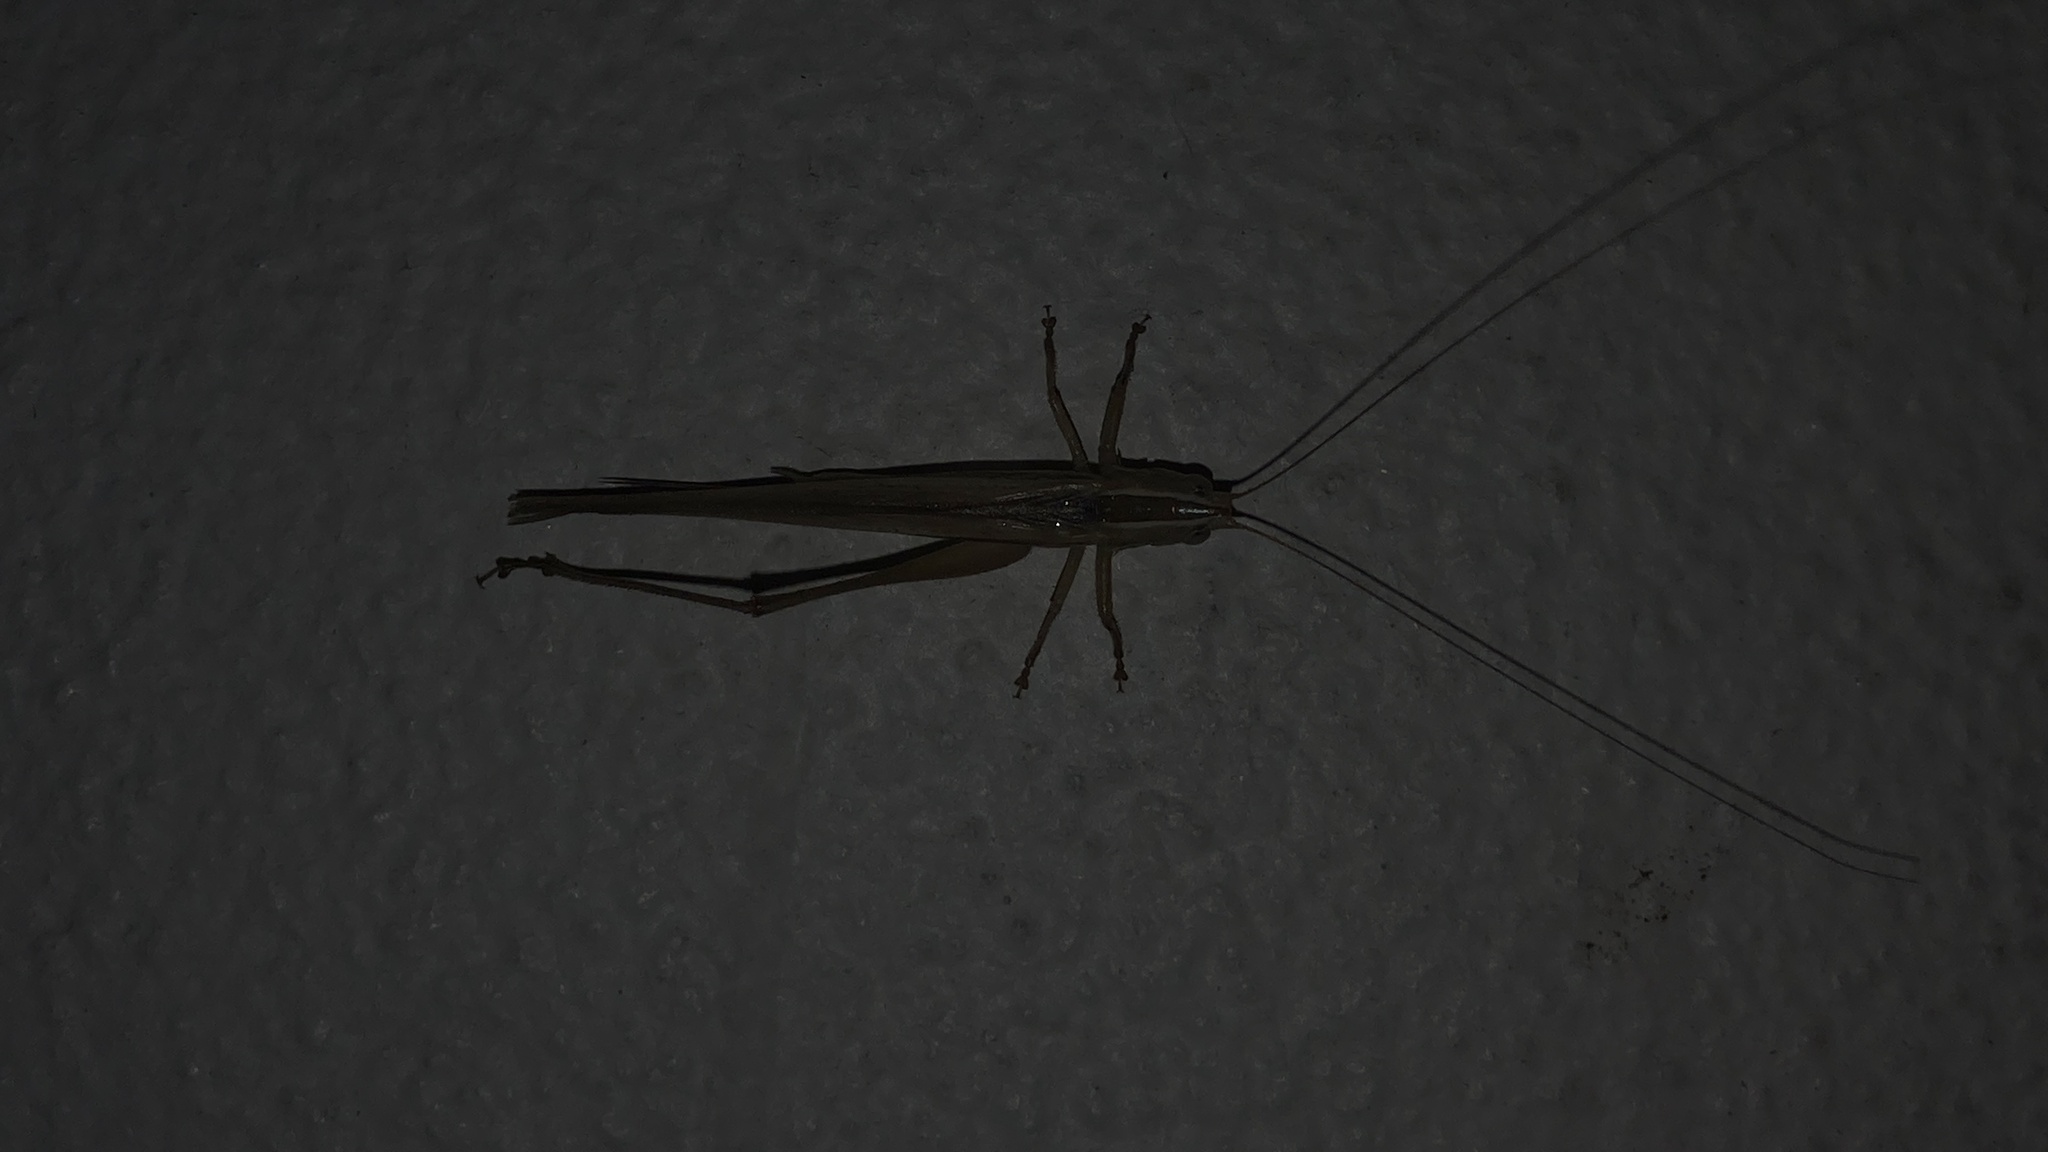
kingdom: Animalia
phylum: Arthropoda
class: Insecta
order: Orthoptera
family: Tettigoniidae
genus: Conocephalus
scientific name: Conocephalus upoluensis
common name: Upolu meadow katydid
